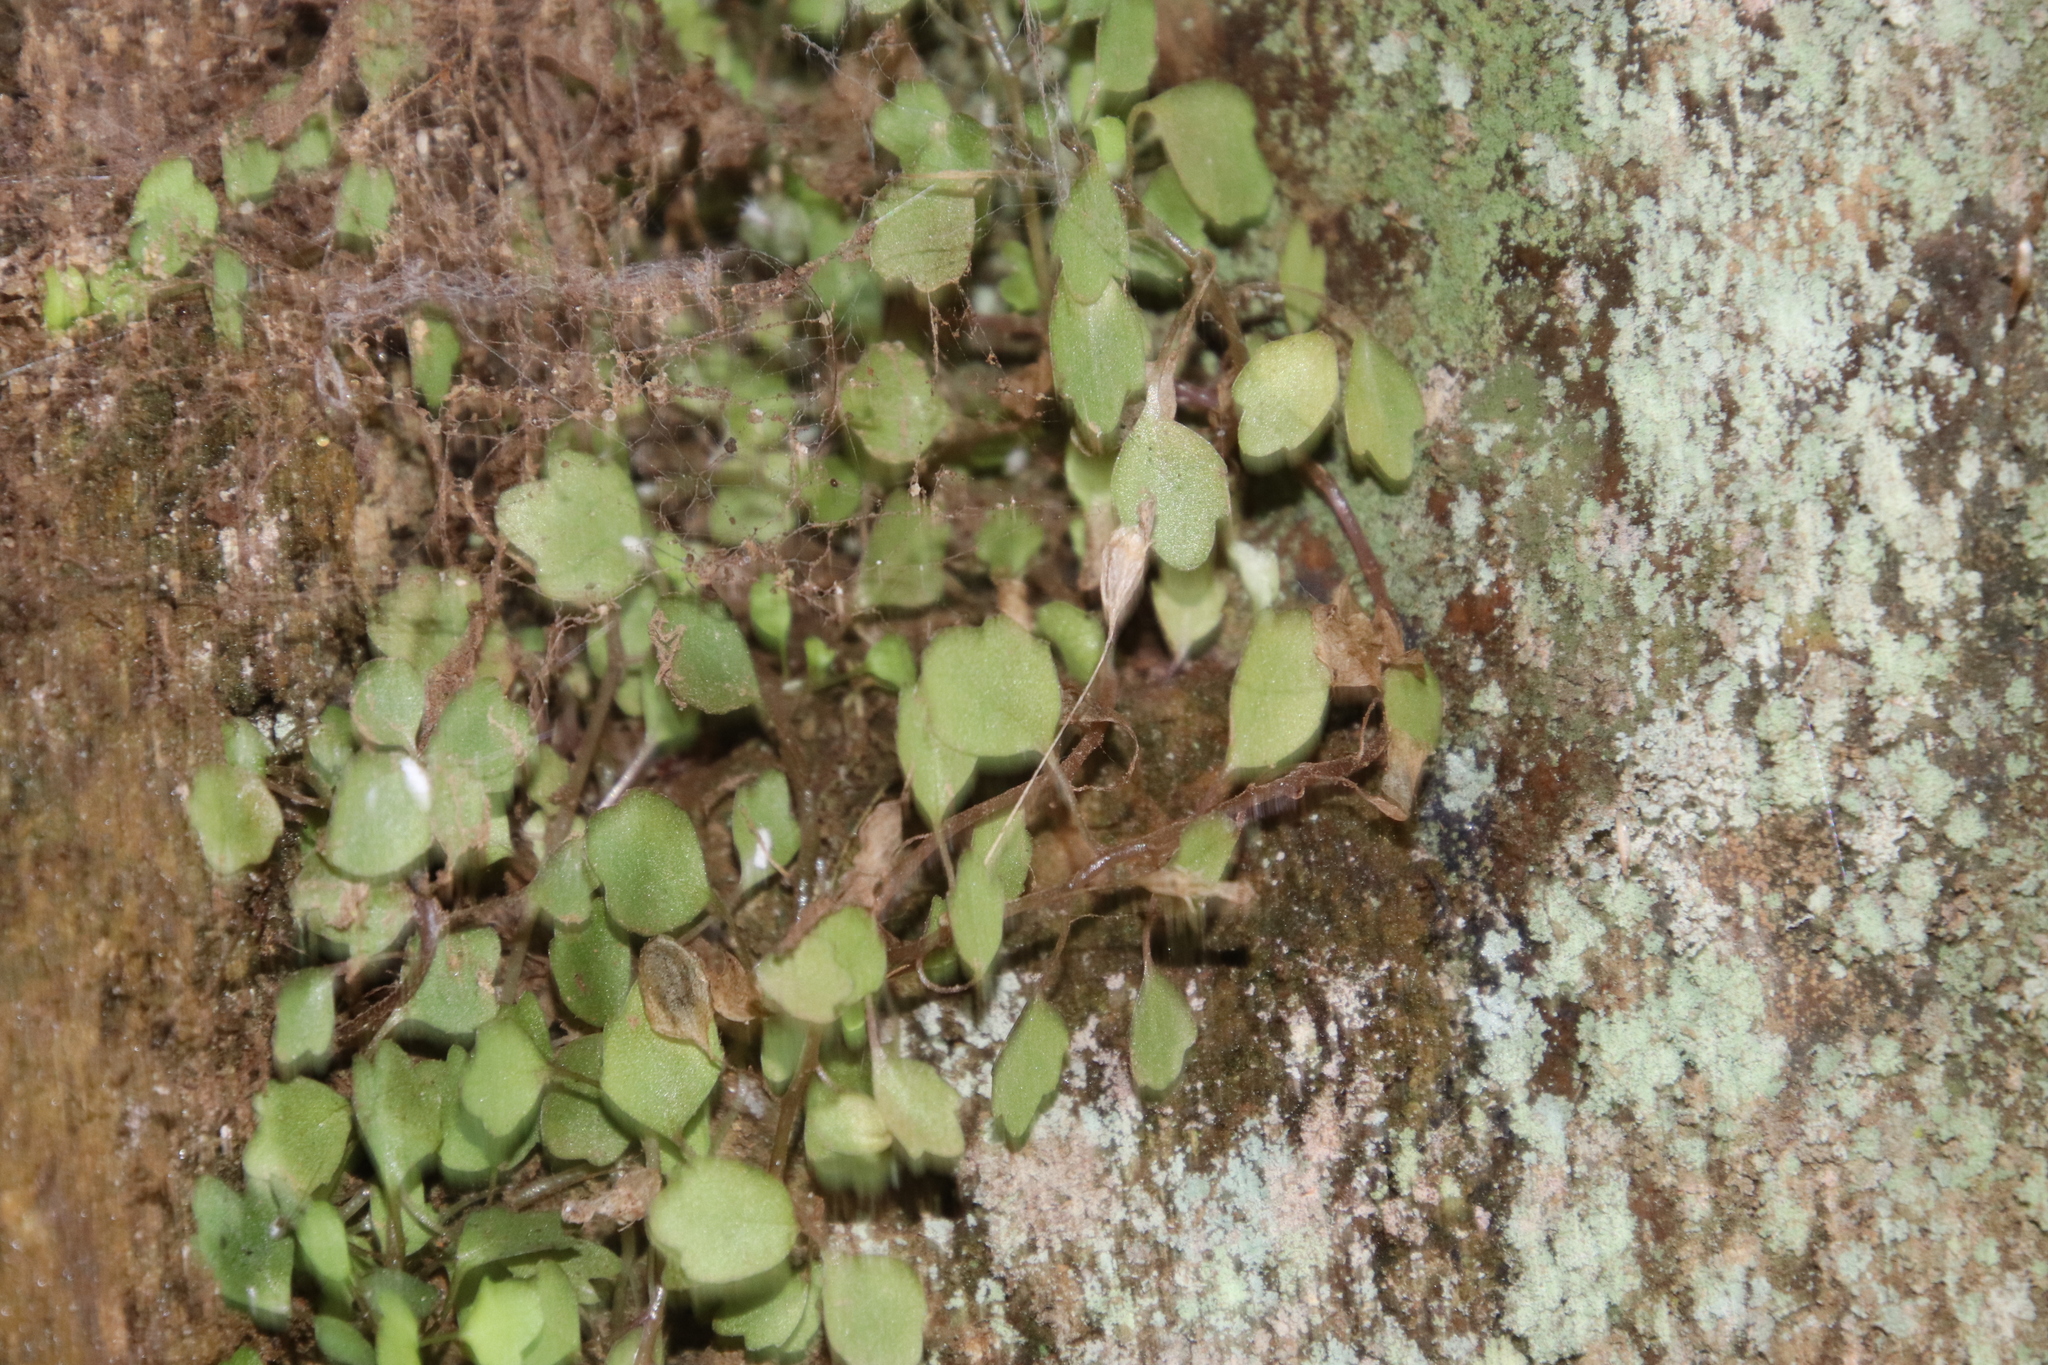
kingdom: Plantae
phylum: Tracheophyta
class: Magnoliopsida
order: Asterales
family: Campanulaceae
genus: Wimmerella
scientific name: Wimmerella pygmaea
